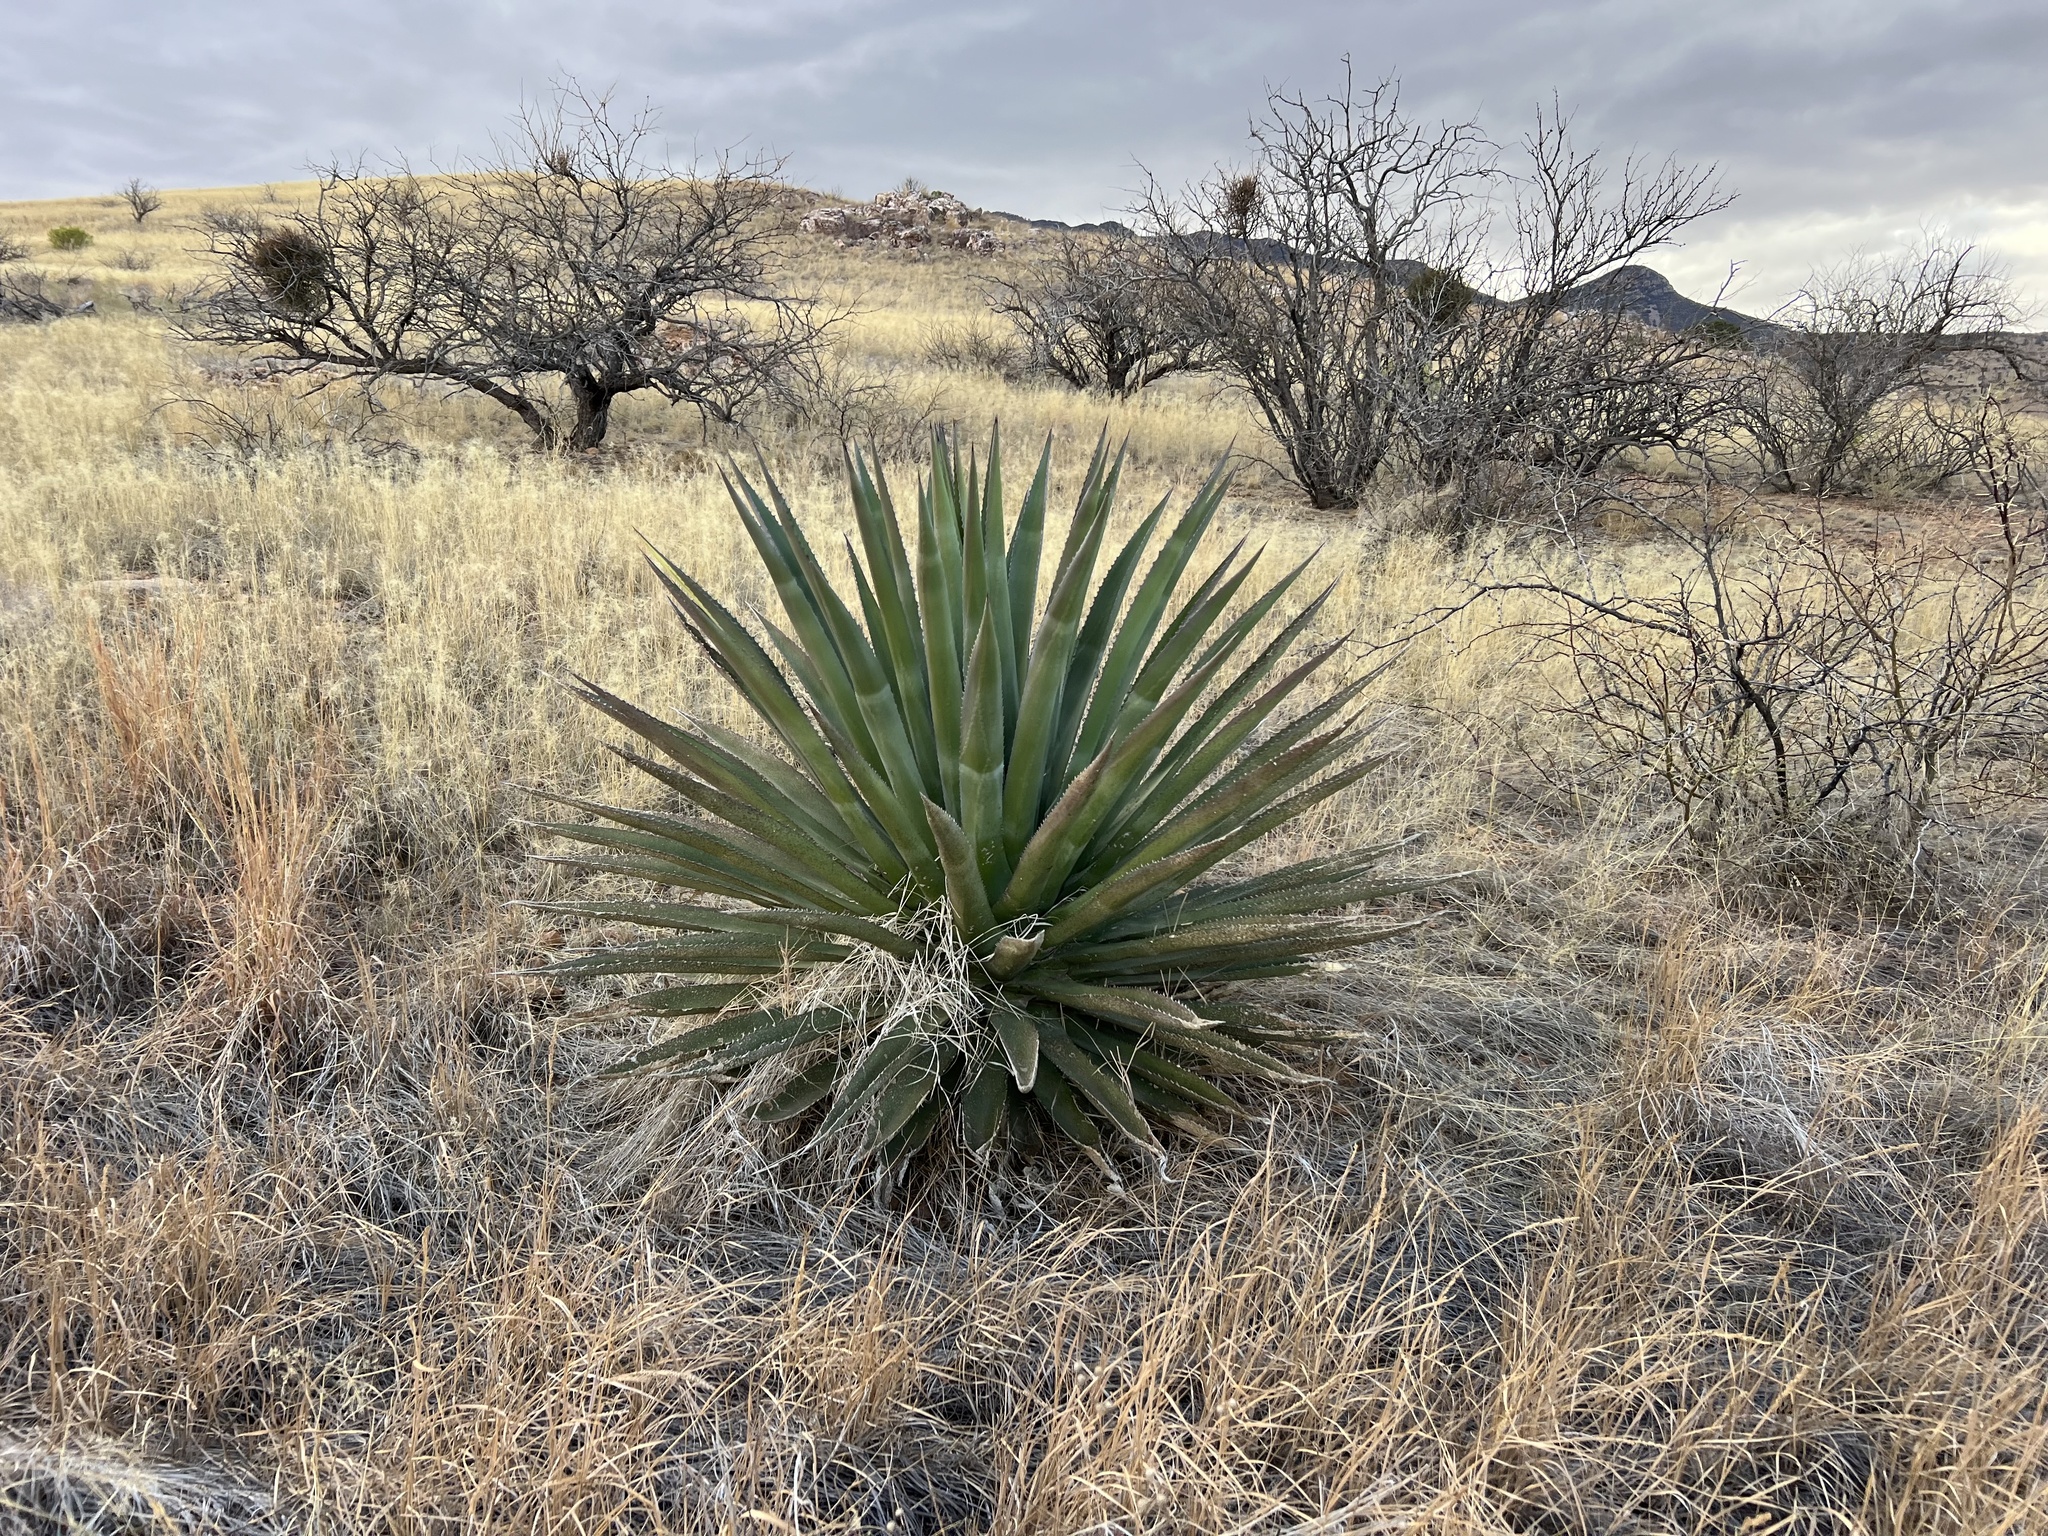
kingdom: Plantae
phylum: Tracheophyta
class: Liliopsida
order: Asparagales
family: Asparagaceae
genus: Agave
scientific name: Agave palmeri
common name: Palmer agave
